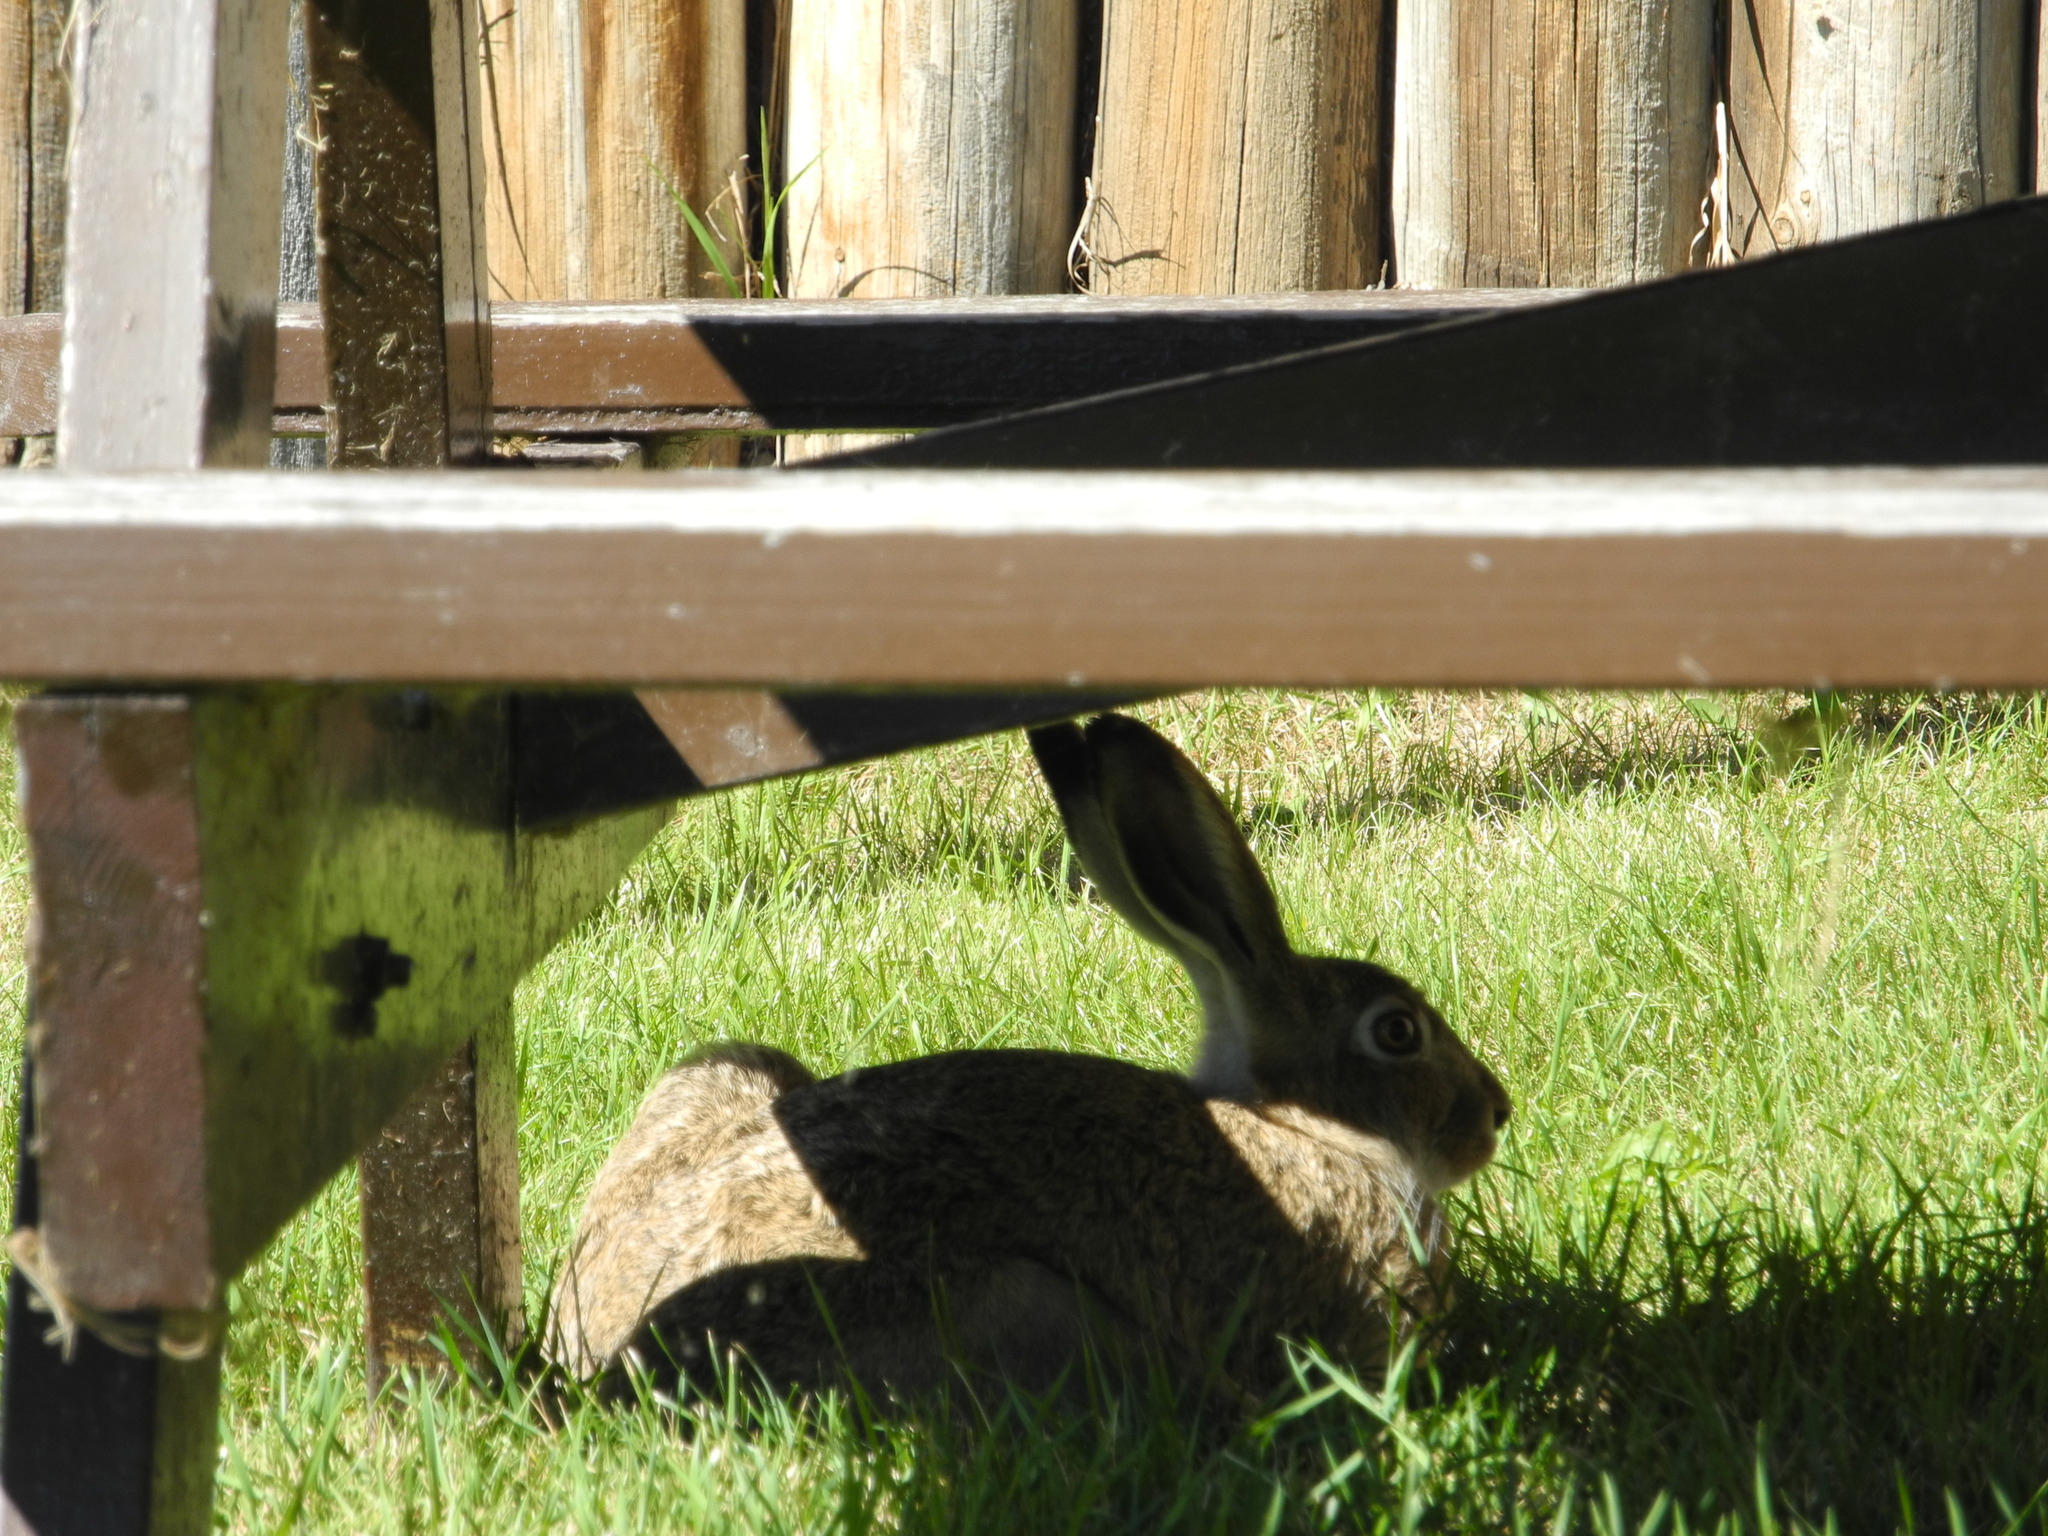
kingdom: Animalia
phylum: Chordata
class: Mammalia
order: Lagomorpha
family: Leporidae
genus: Lepus
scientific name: Lepus townsendii
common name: White-tailed jackrabbit
